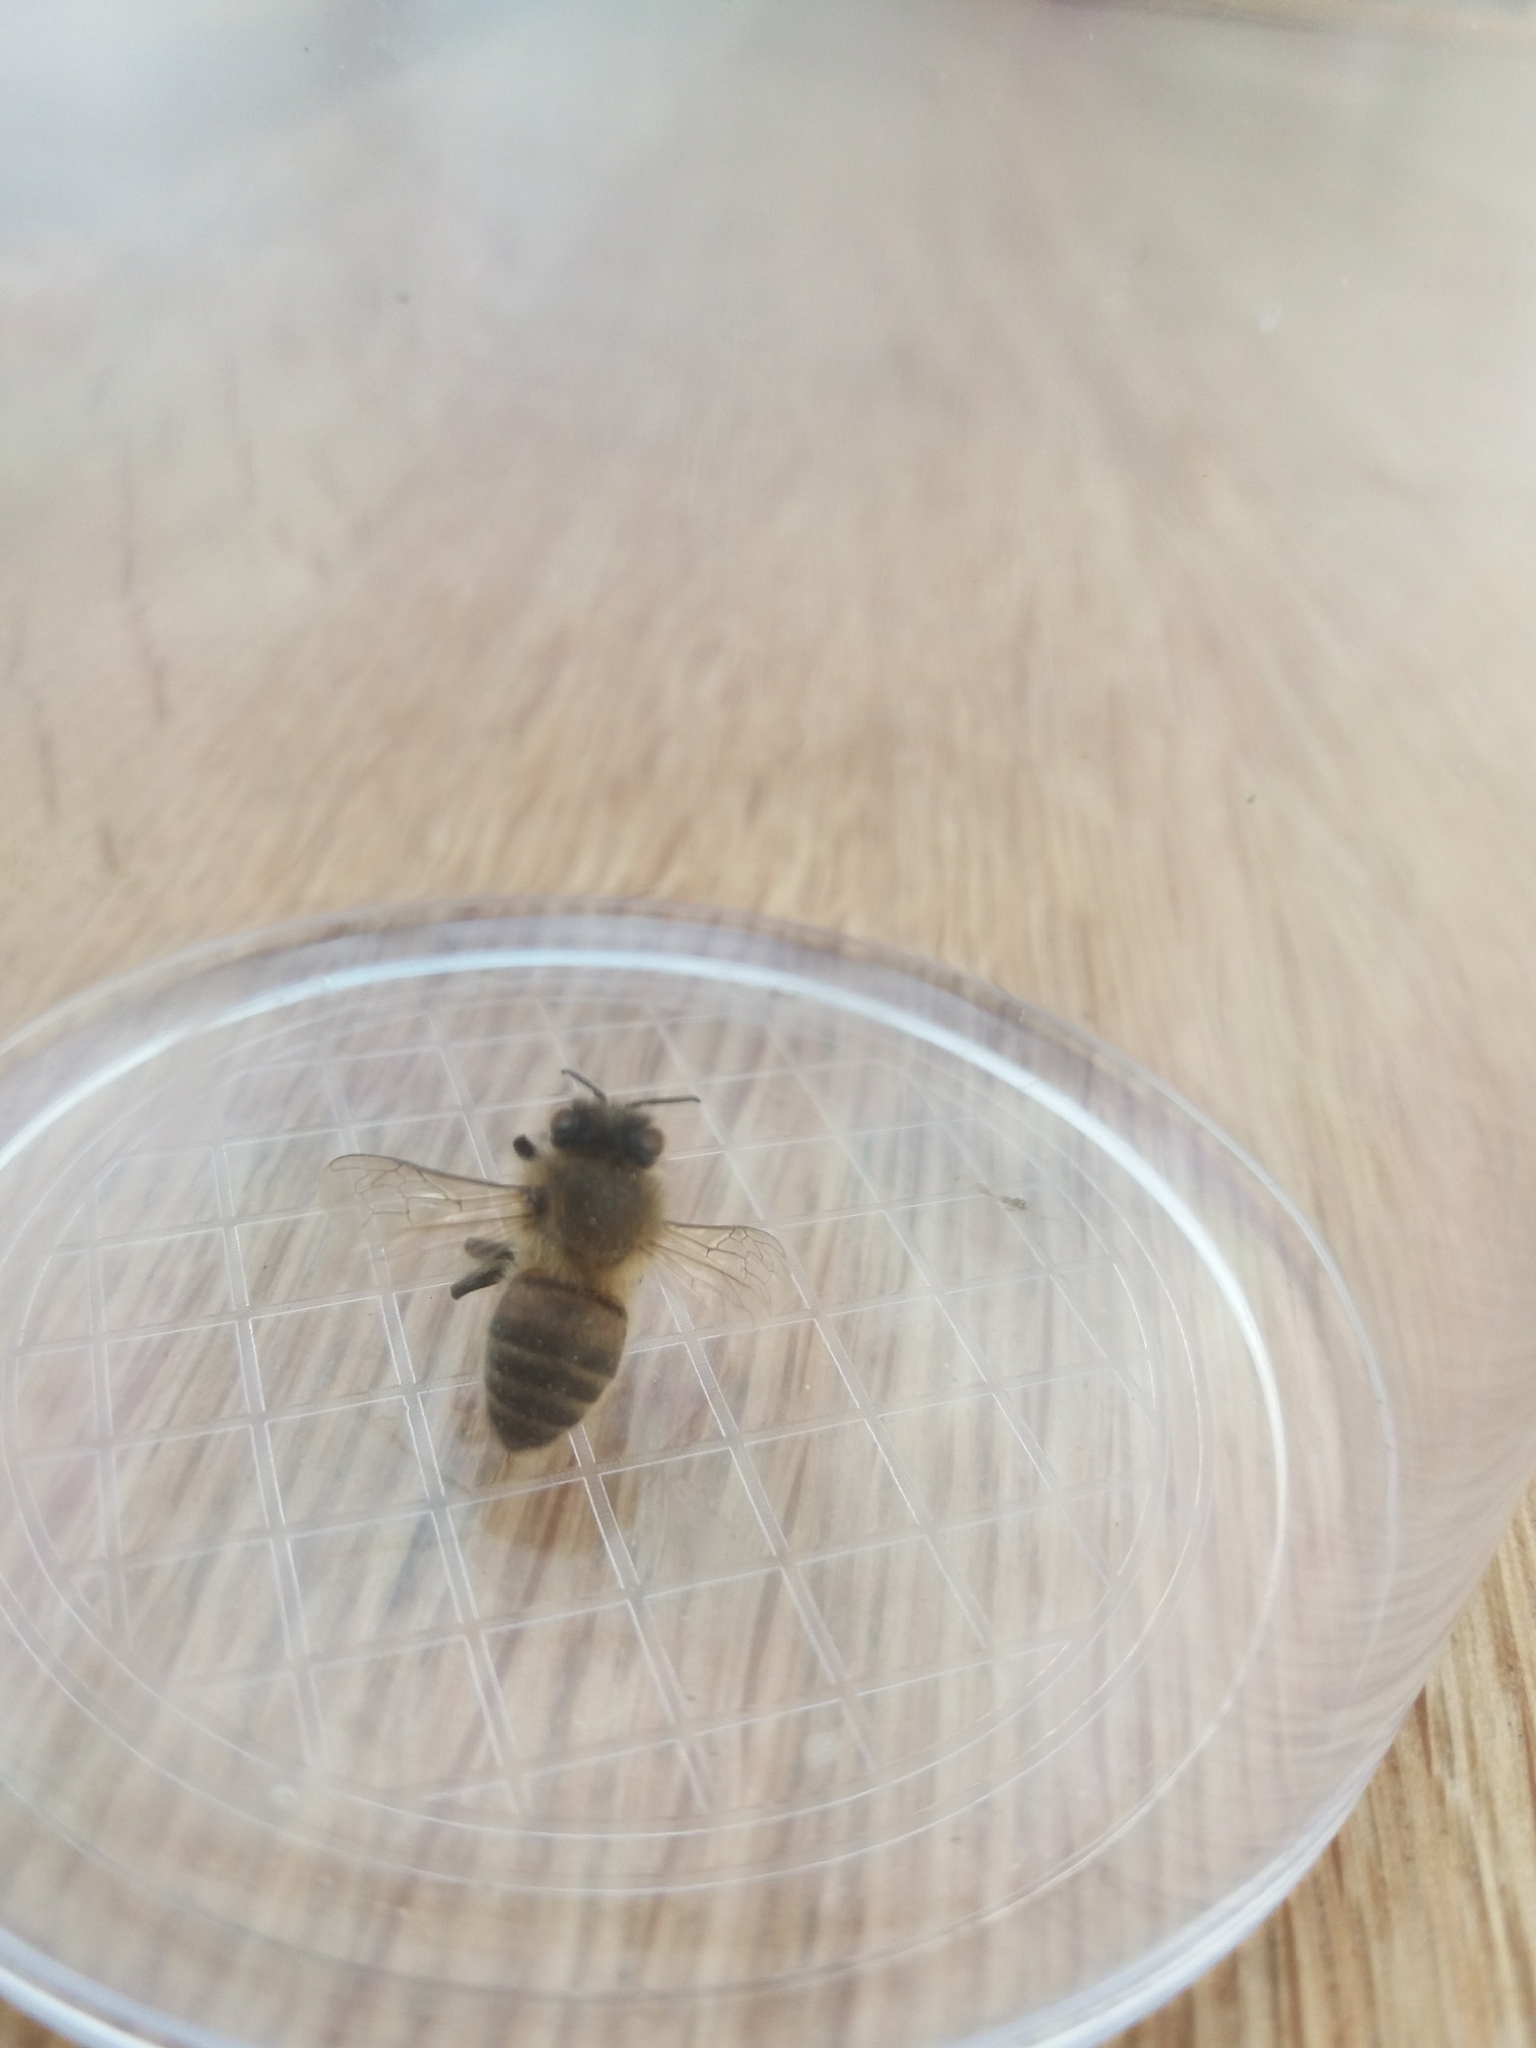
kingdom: Animalia
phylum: Arthropoda
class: Insecta
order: Hymenoptera
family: Apidae
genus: Apis
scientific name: Apis mellifera
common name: Honey bee
